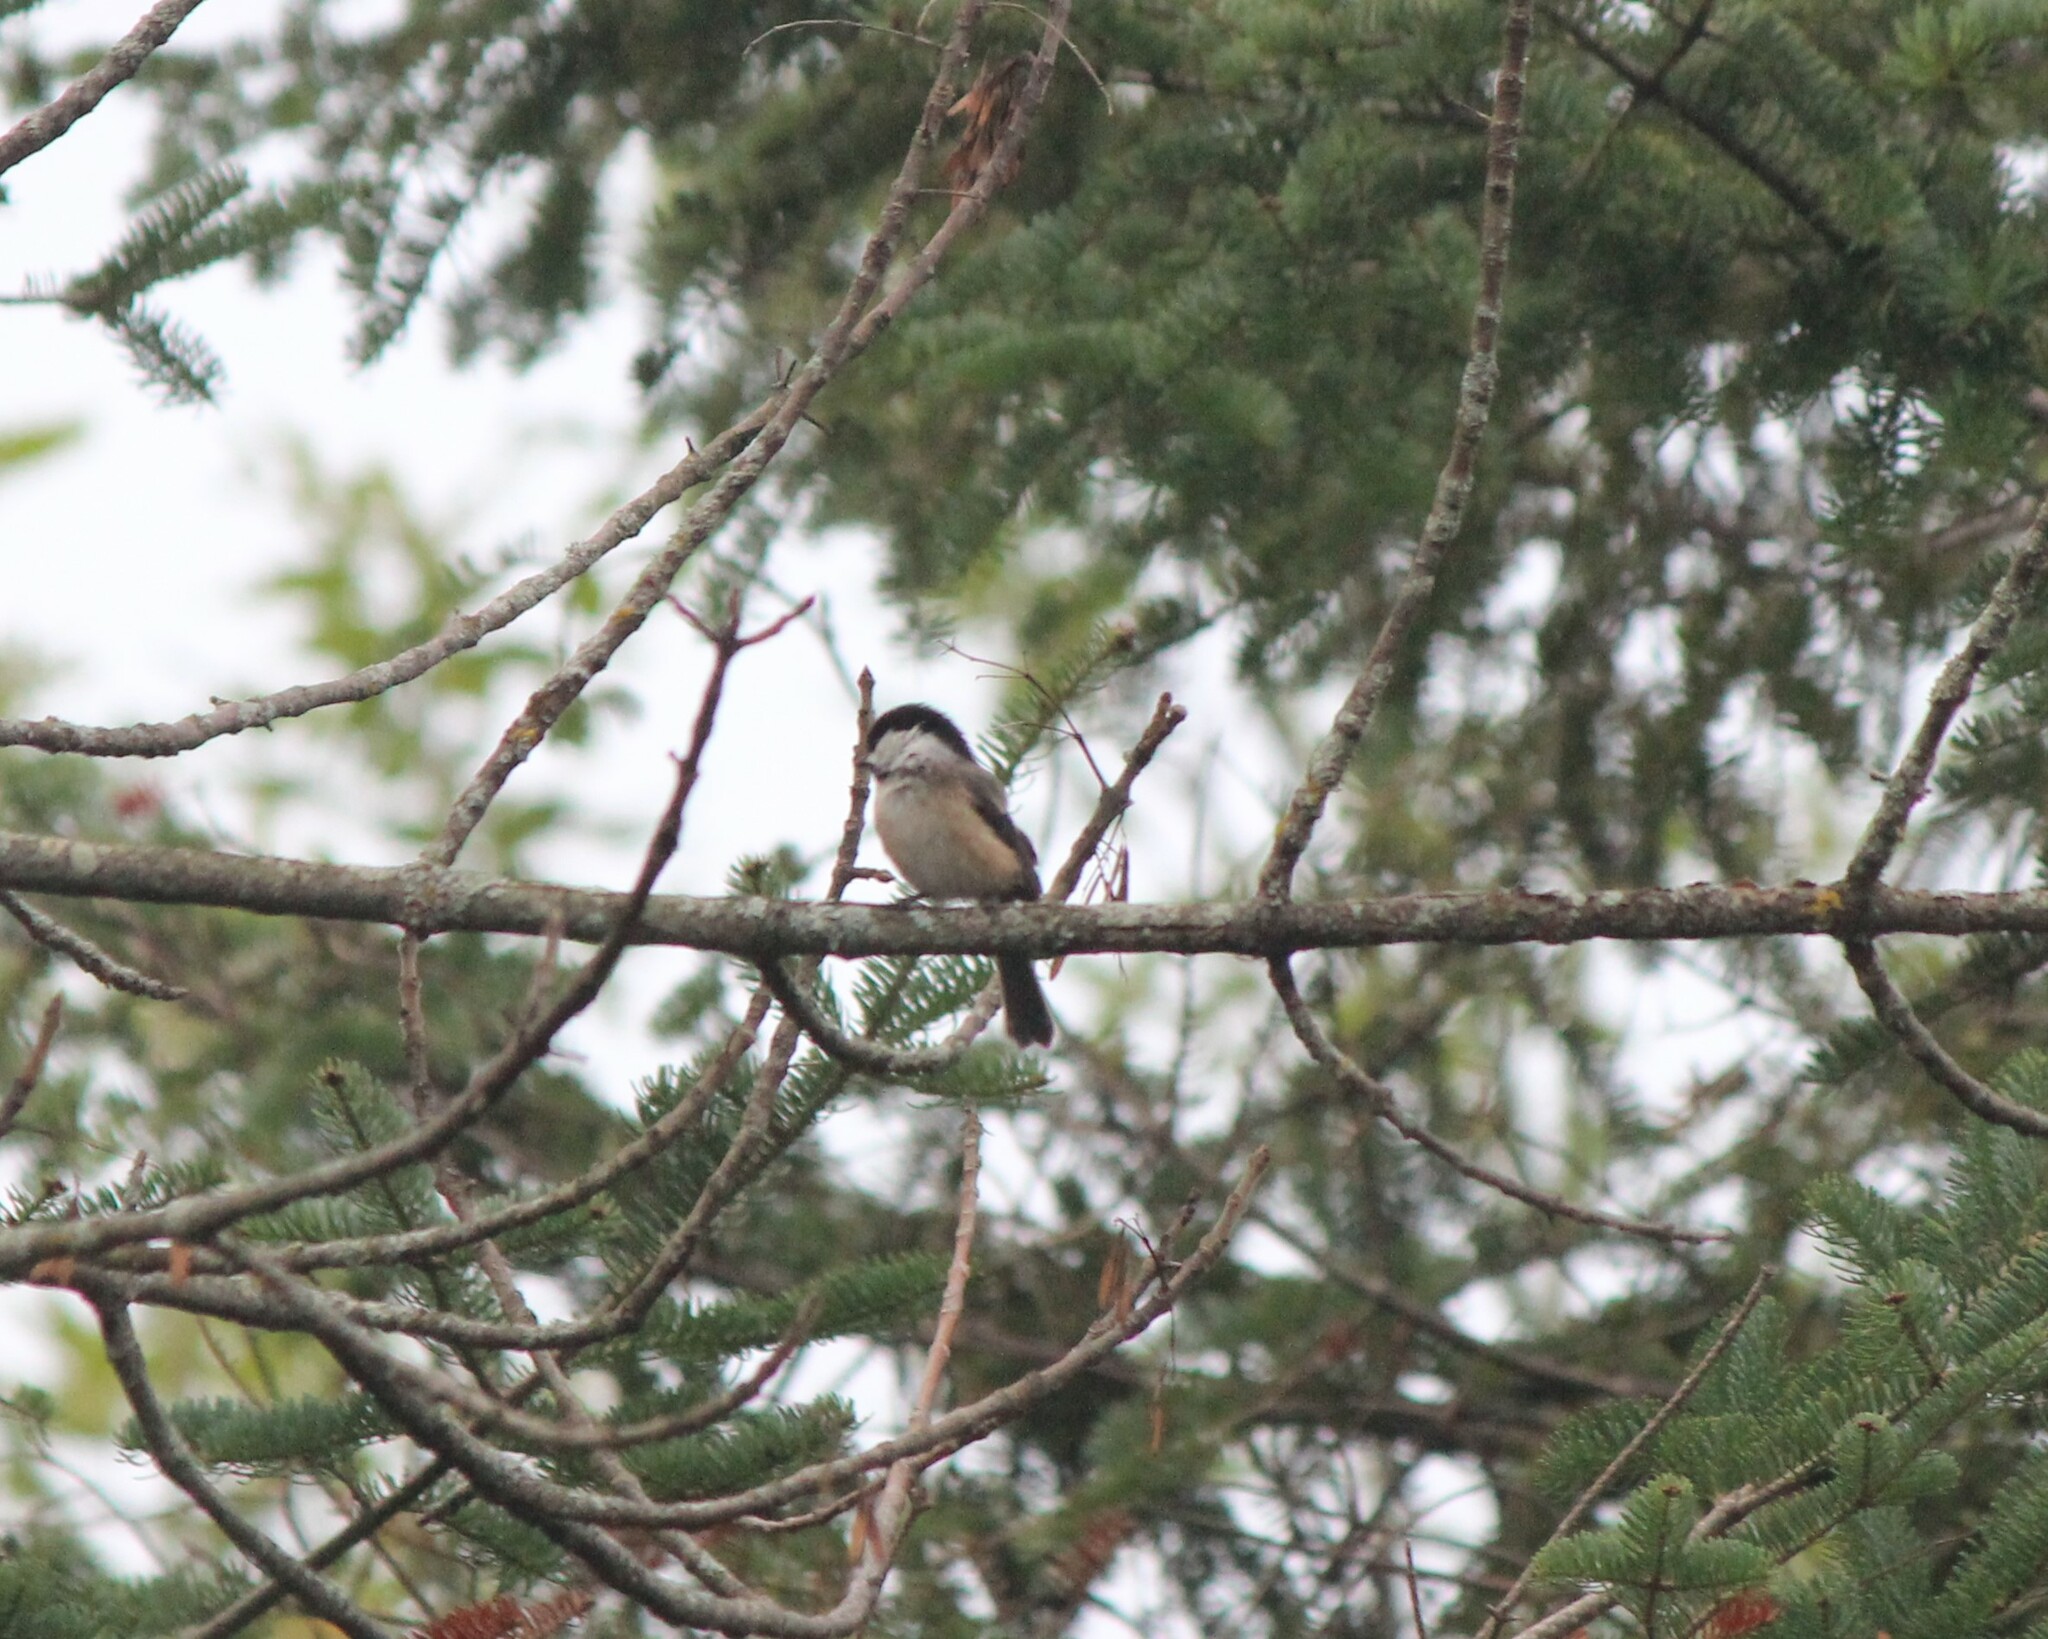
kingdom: Animalia
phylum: Chordata
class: Aves
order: Passeriformes
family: Paridae
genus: Poecile
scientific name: Poecile atricapillus
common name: Black-capped chickadee
